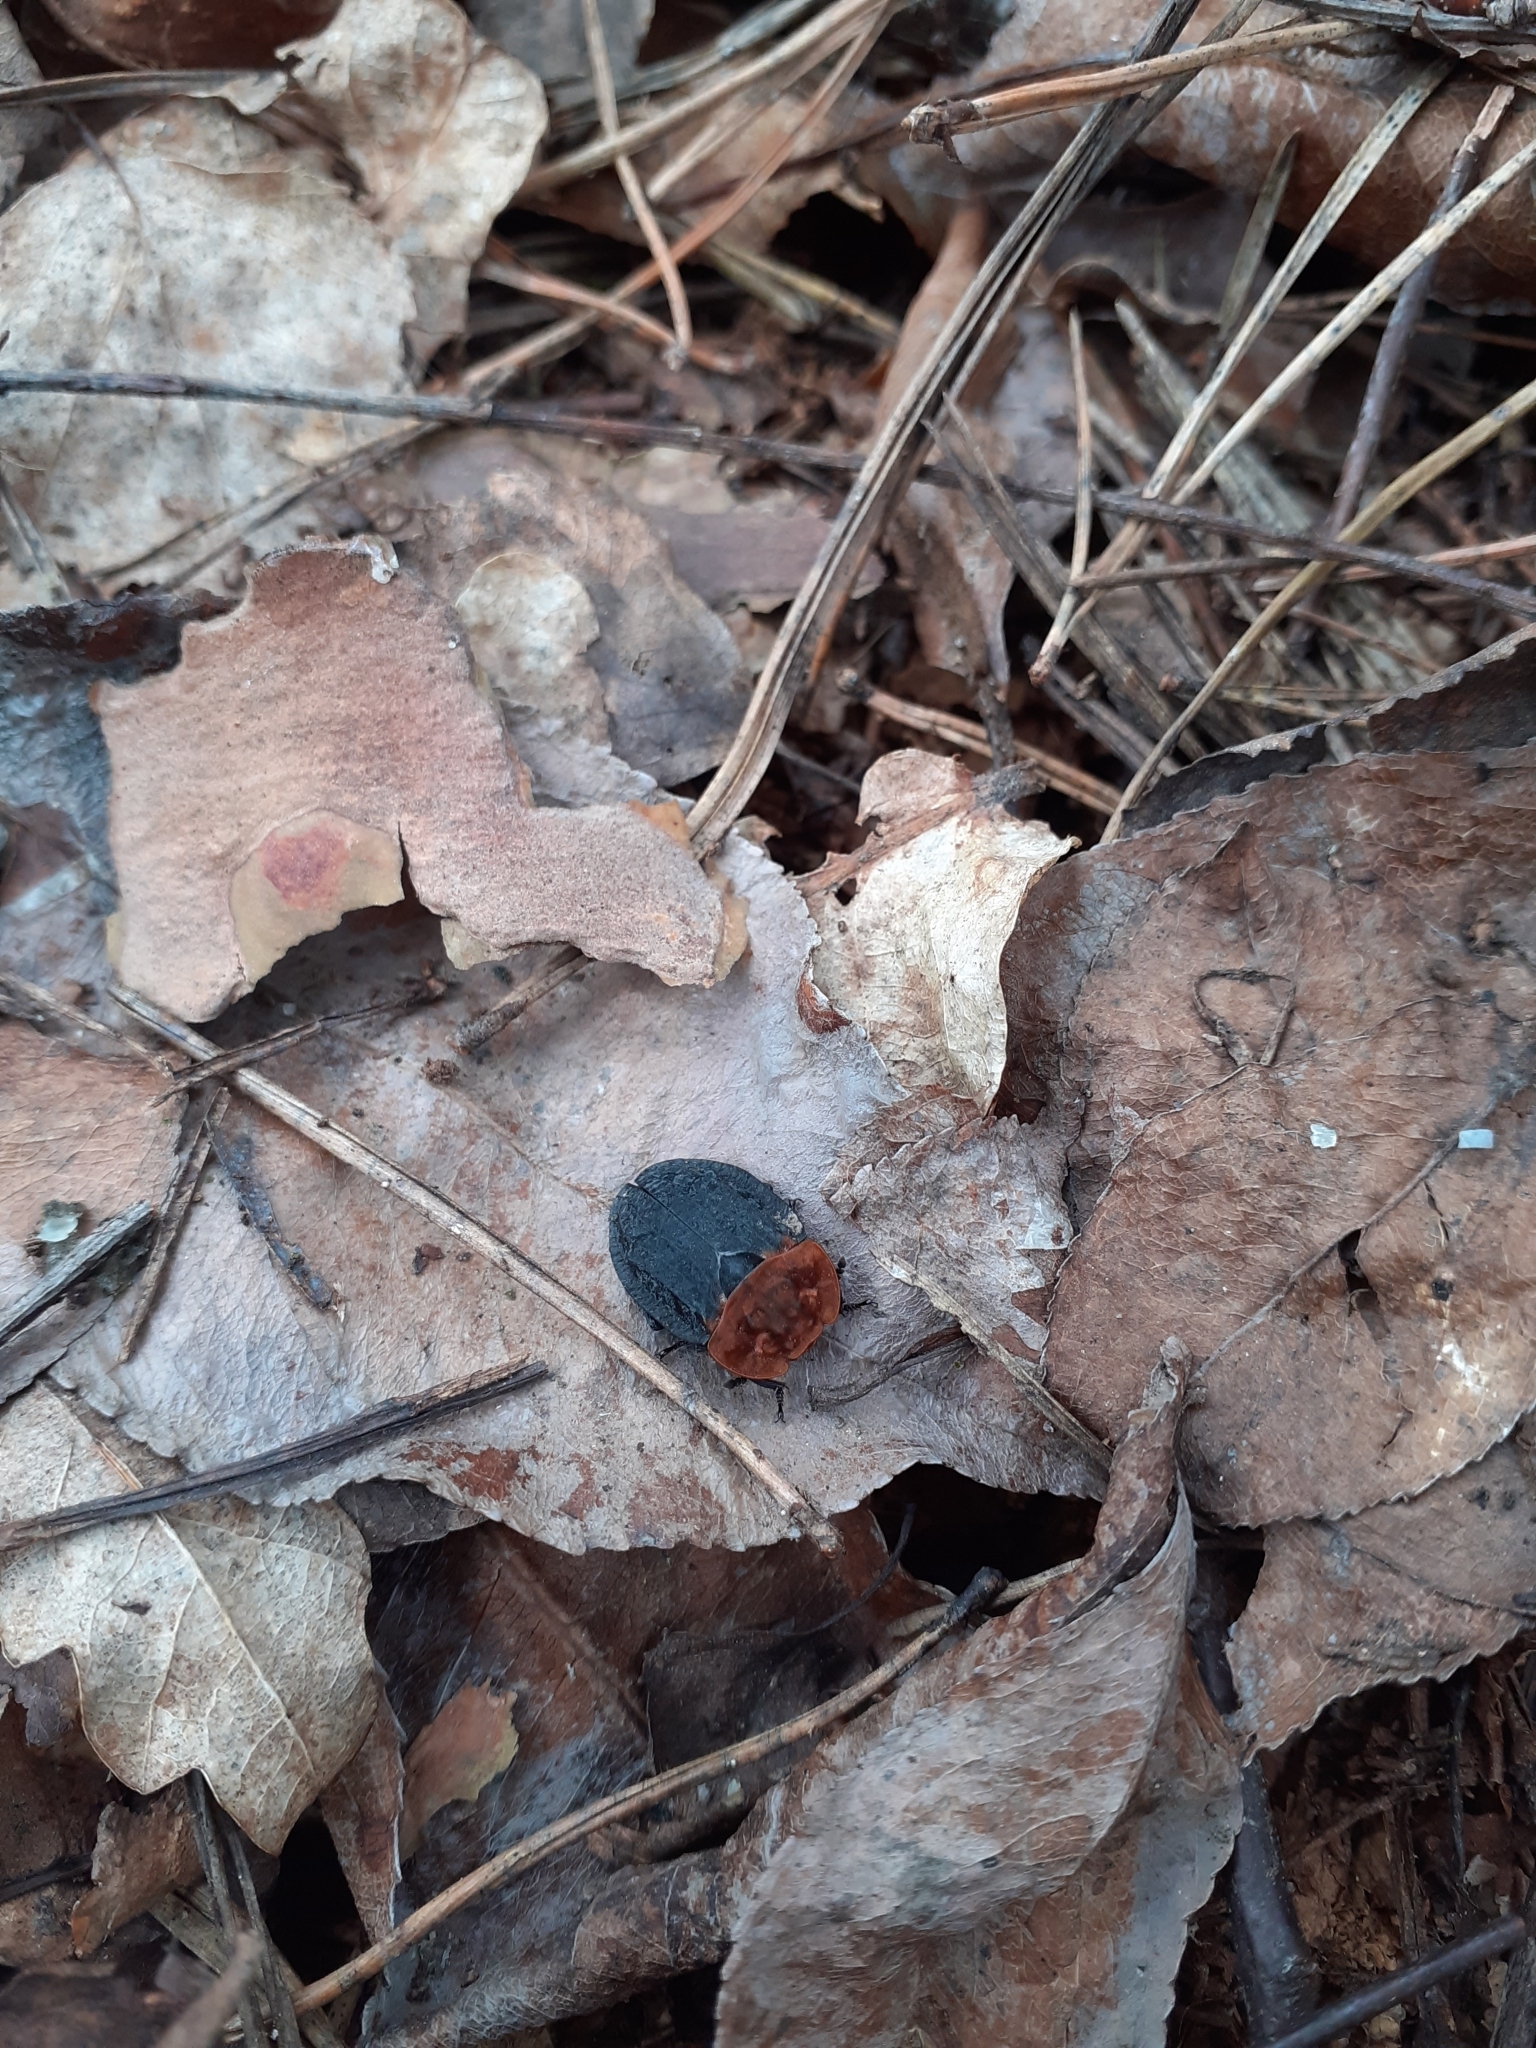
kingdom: Animalia
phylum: Arthropoda
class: Insecta
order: Coleoptera
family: Staphylinidae
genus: Oiceoptoma
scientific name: Oiceoptoma thoracicum
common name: Red-breasted carrion beetle
